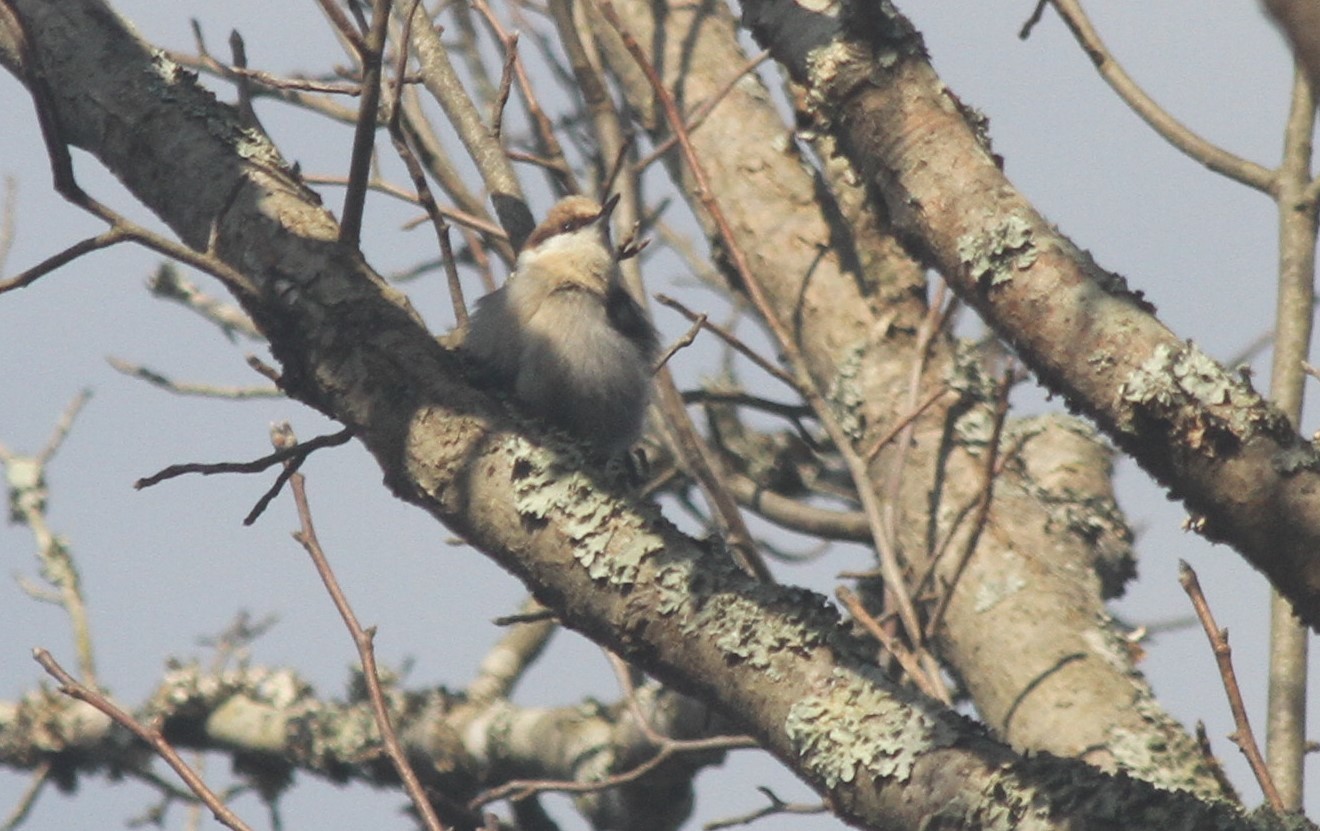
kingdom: Animalia
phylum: Chordata
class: Aves
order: Passeriformes
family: Sittidae
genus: Sitta
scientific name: Sitta pusilla
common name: Brown-headed nuthatch
